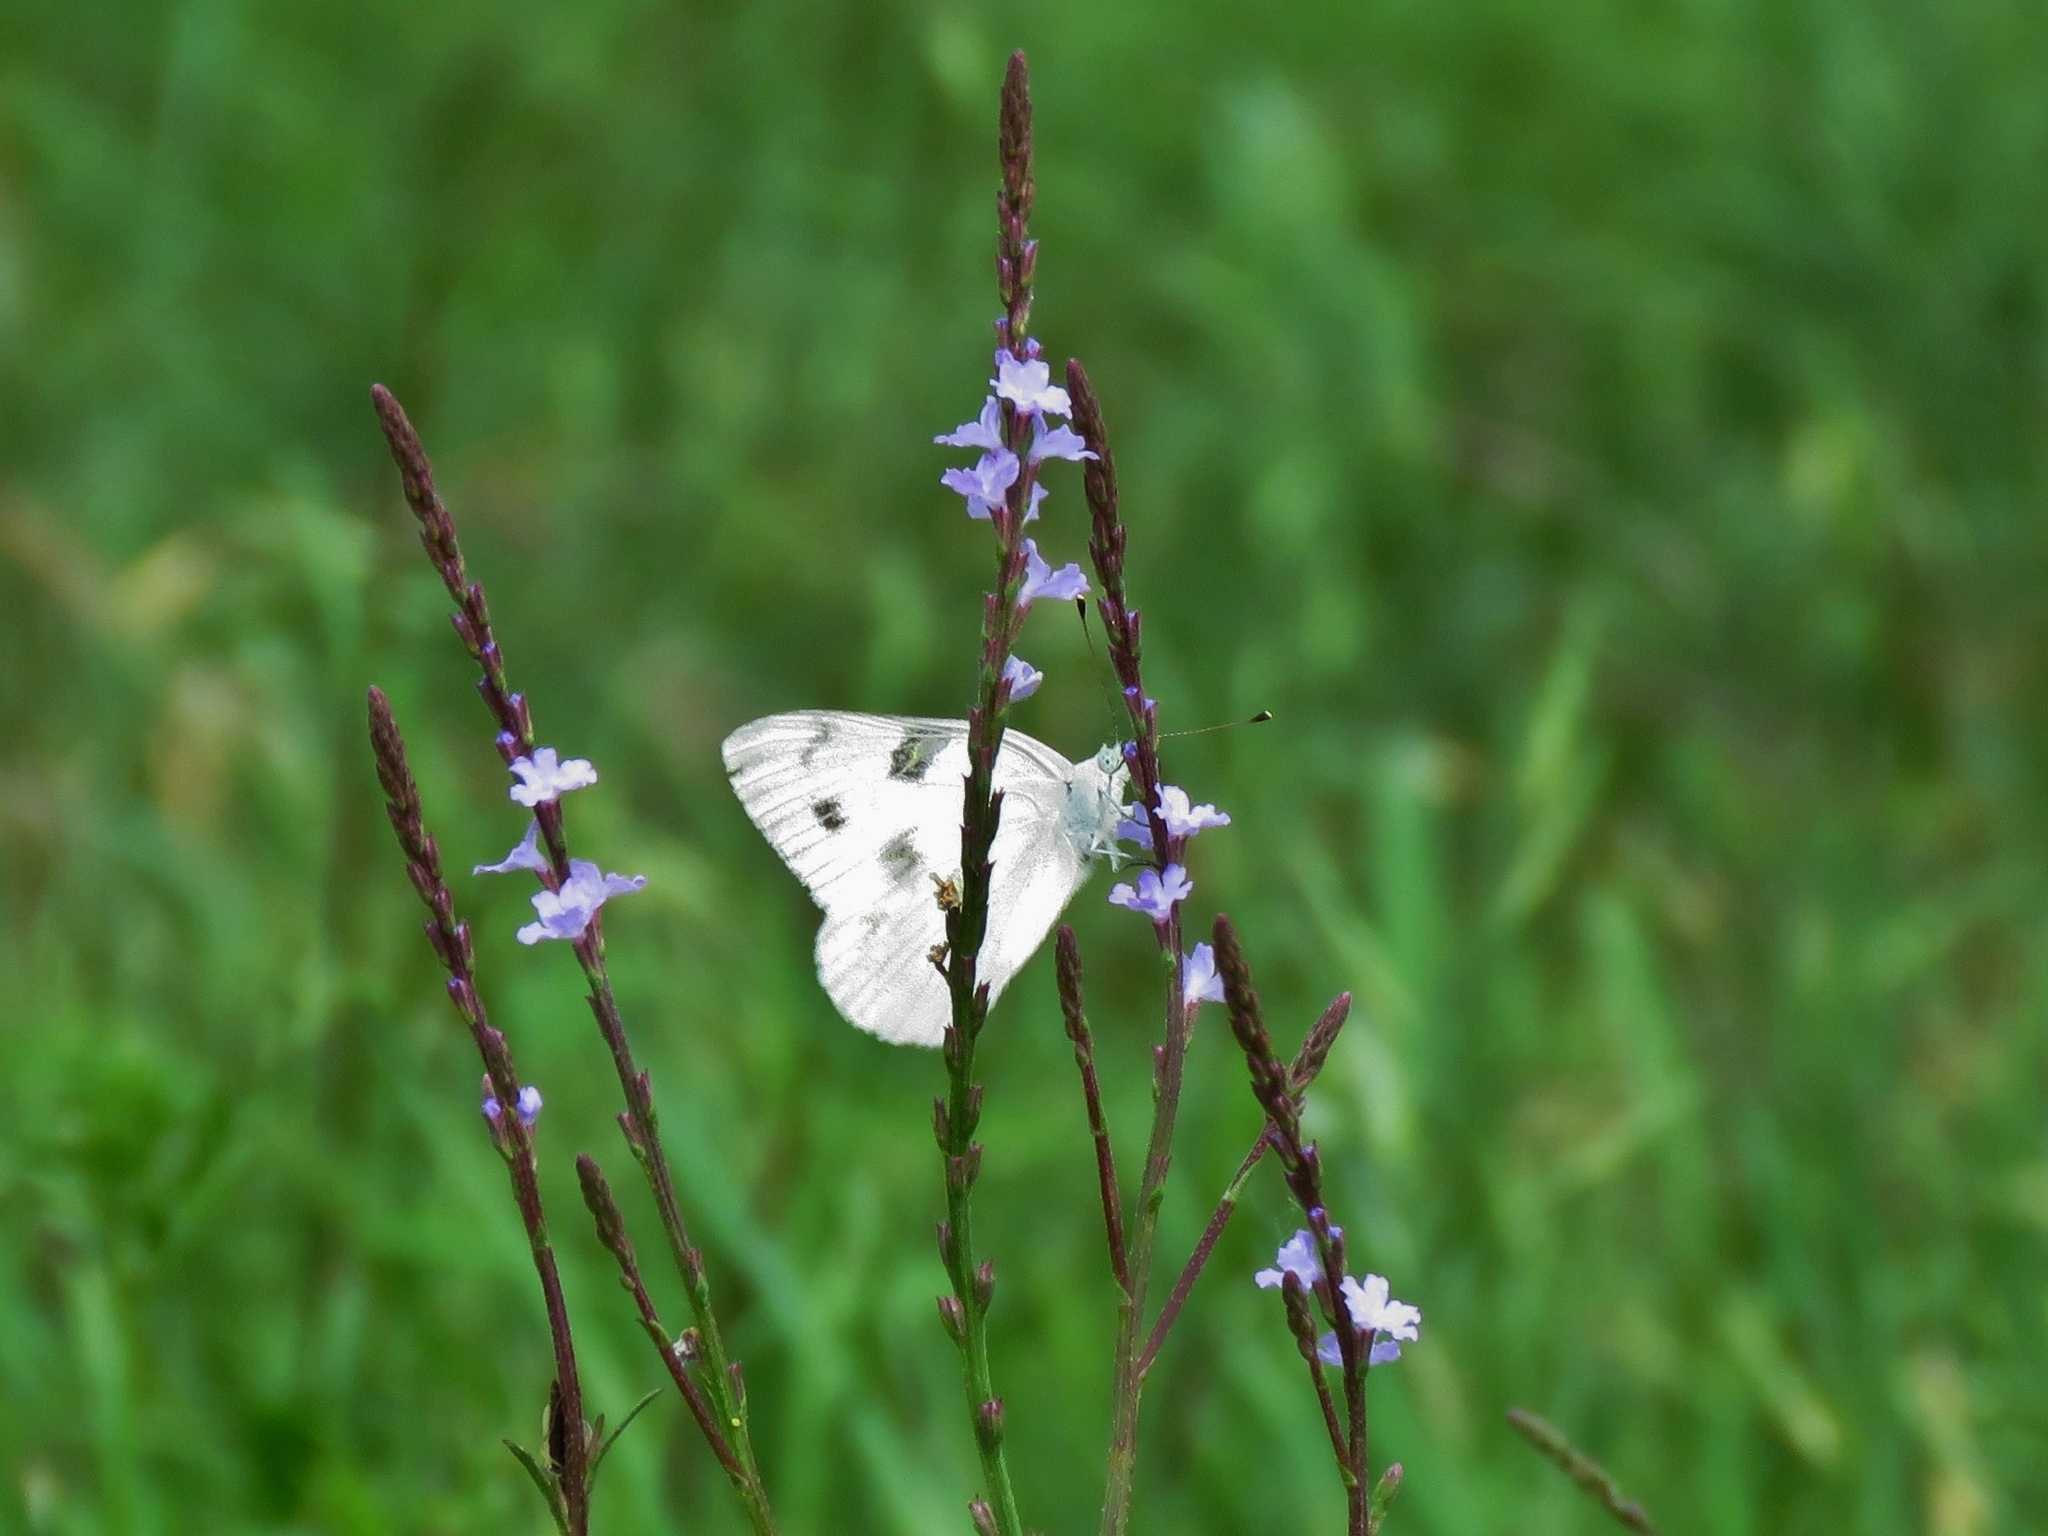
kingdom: Animalia
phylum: Arthropoda
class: Insecta
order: Lepidoptera
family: Pieridae
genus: Pontia
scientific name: Pontia protodice
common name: Checkered white
